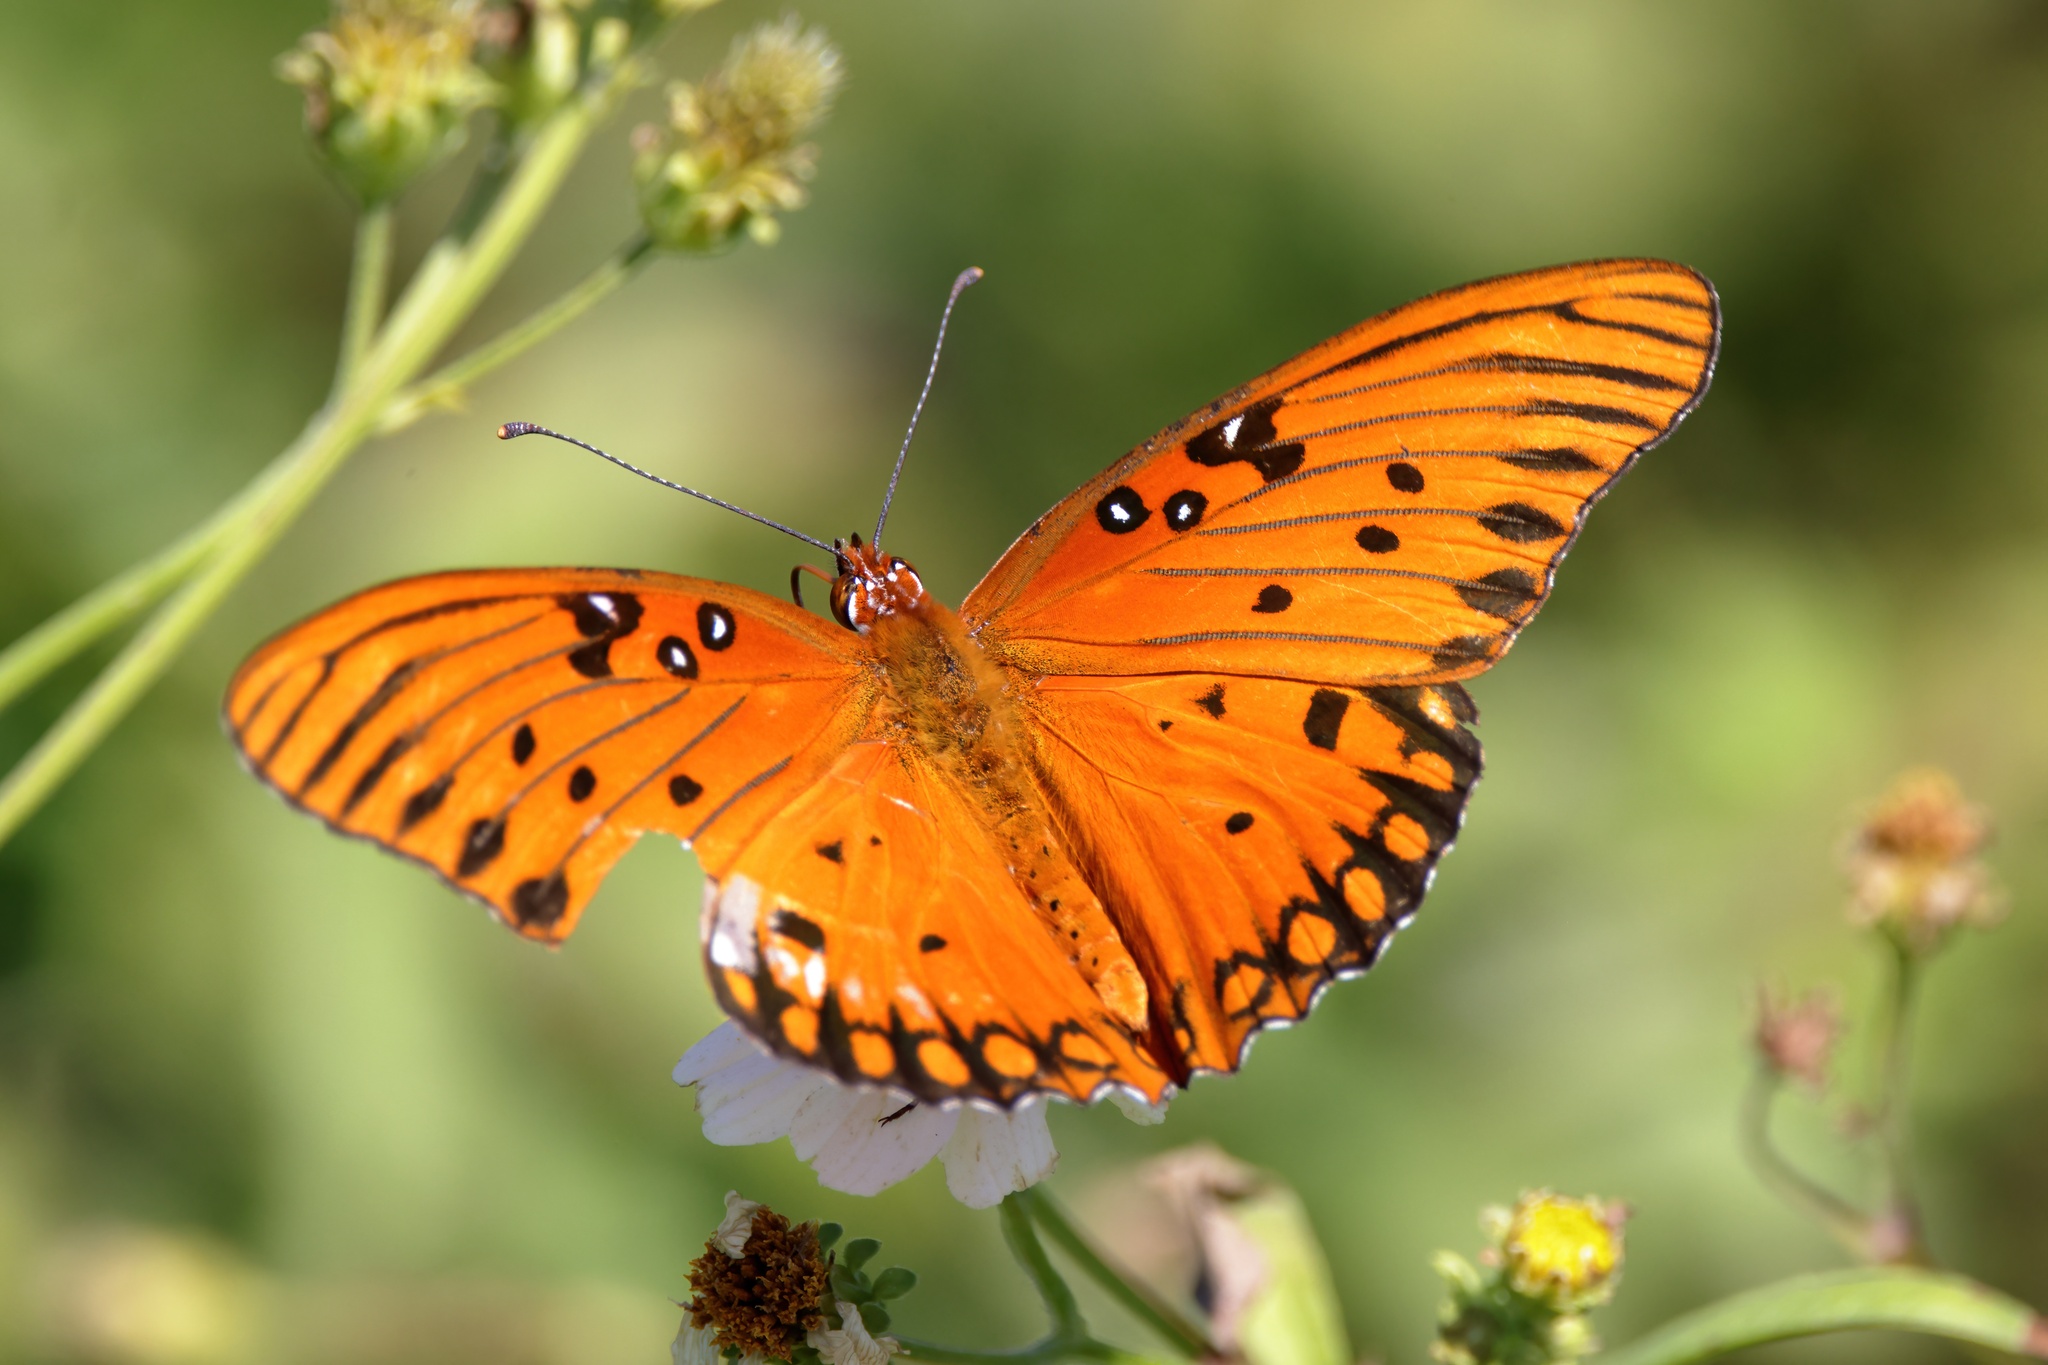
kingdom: Animalia
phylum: Arthropoda
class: Insecta
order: Lepidoptera
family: Nymphalidae
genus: Dione
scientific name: Dione vanillae
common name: Gulf fritillary
